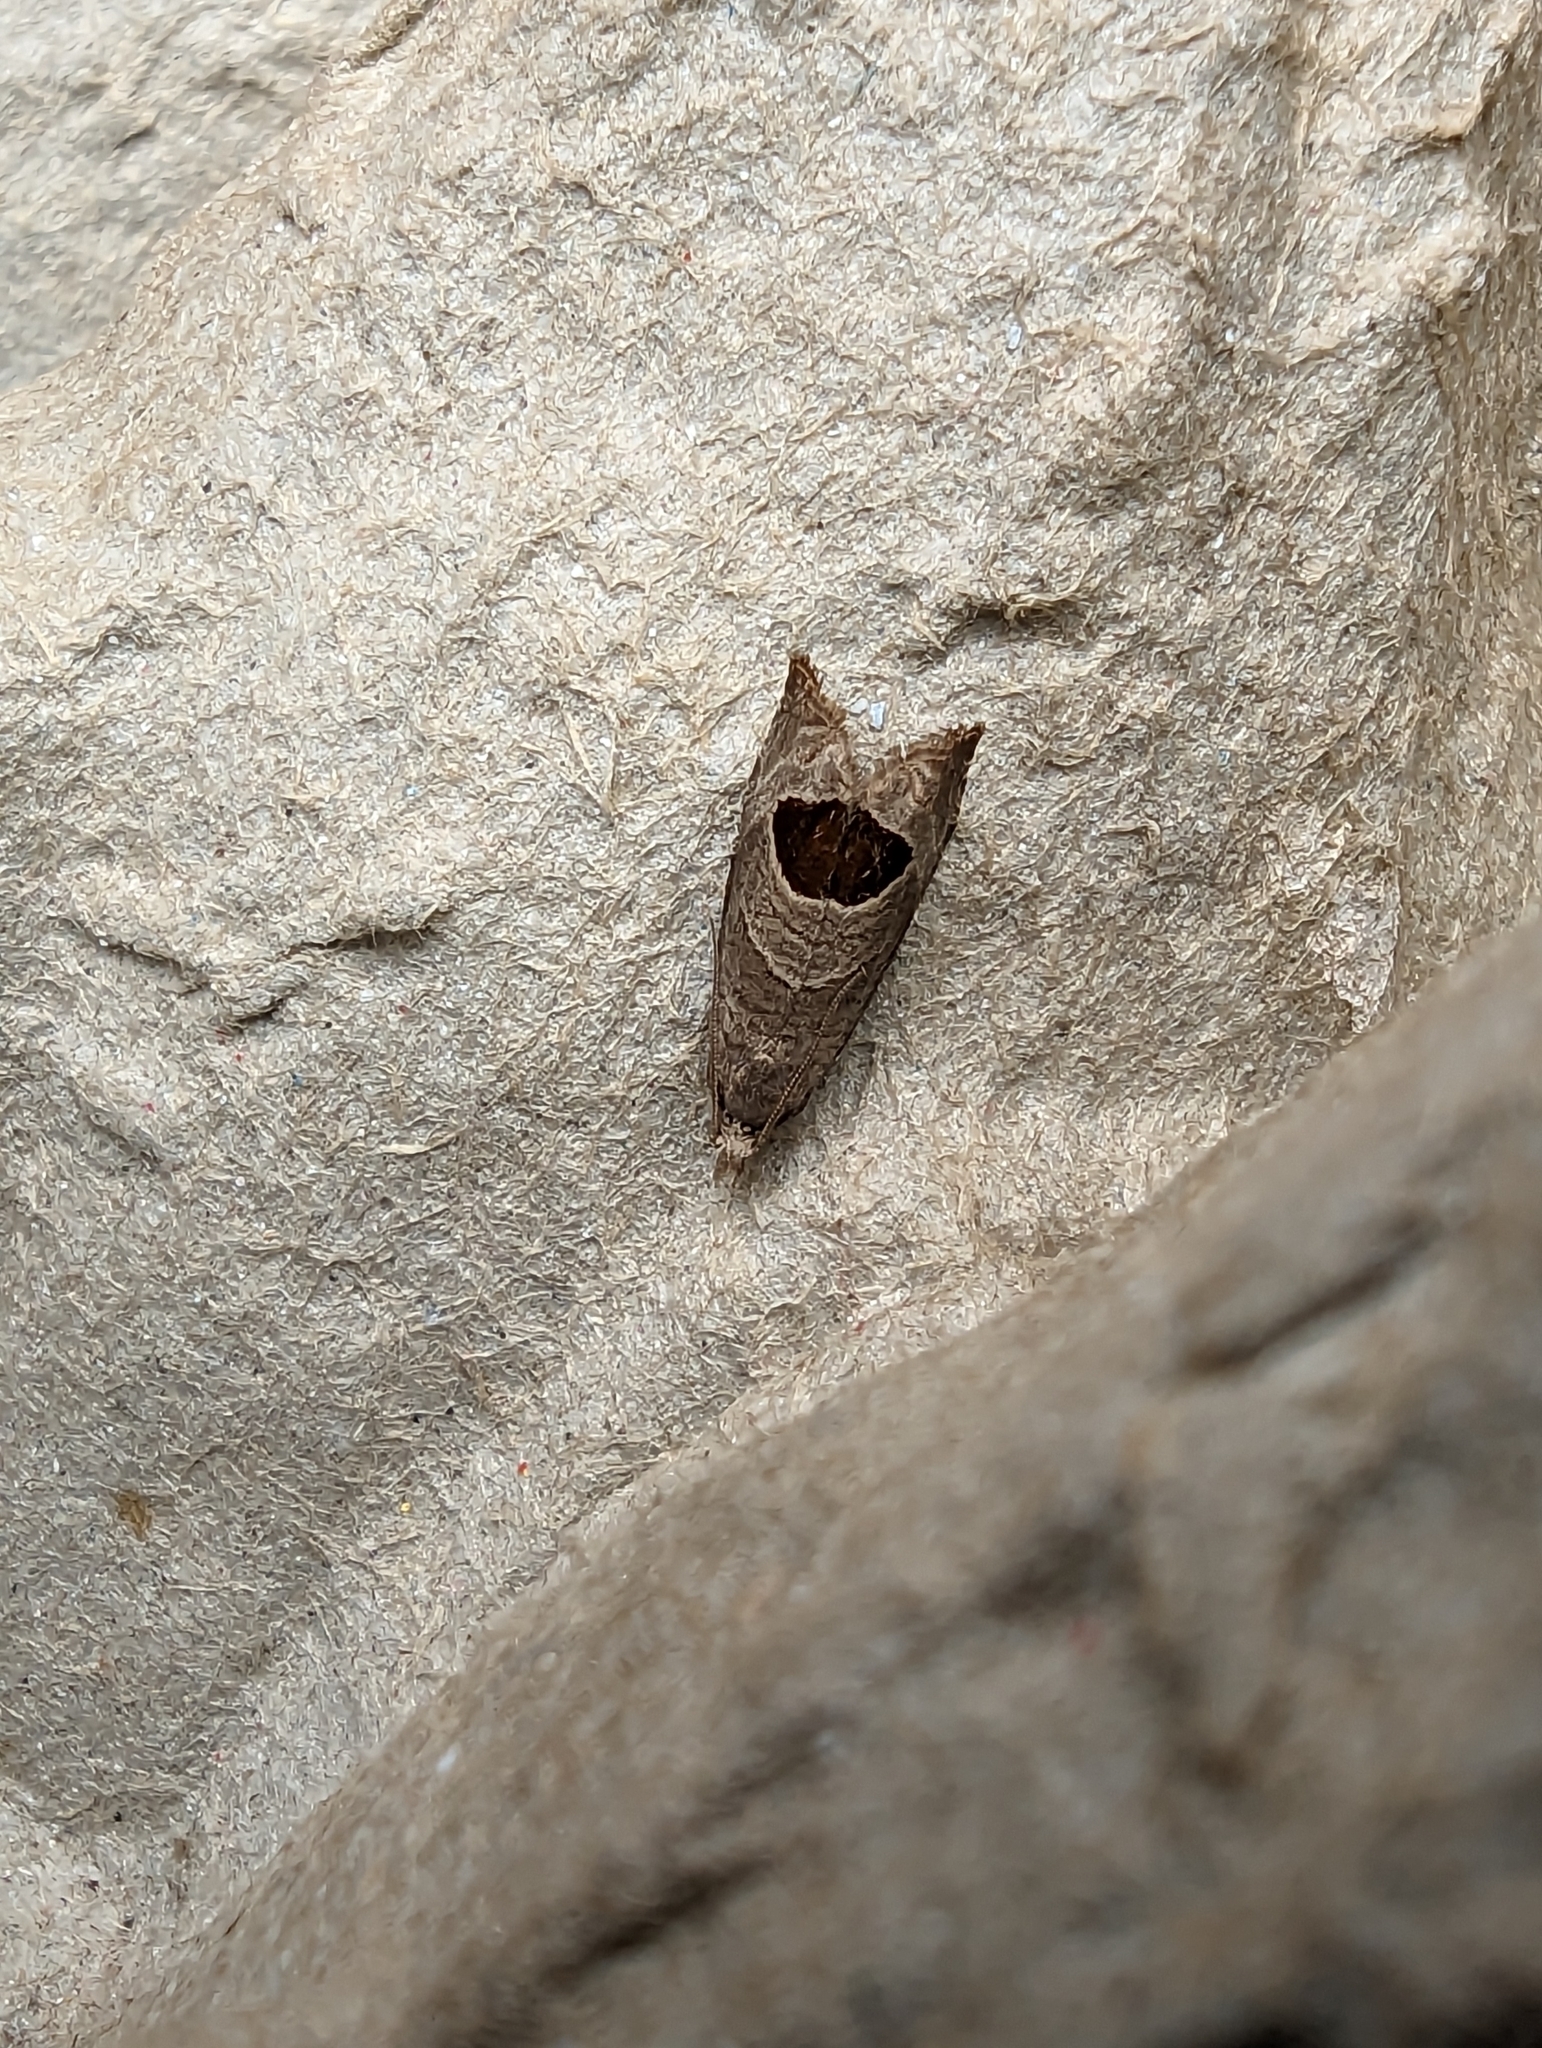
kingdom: Animalia
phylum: Arthropoda
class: Insecta
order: Lepidoptera
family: Tortricidae
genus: Notocelia
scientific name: Notocelia uddmanniana
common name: Bramble shoot moth
